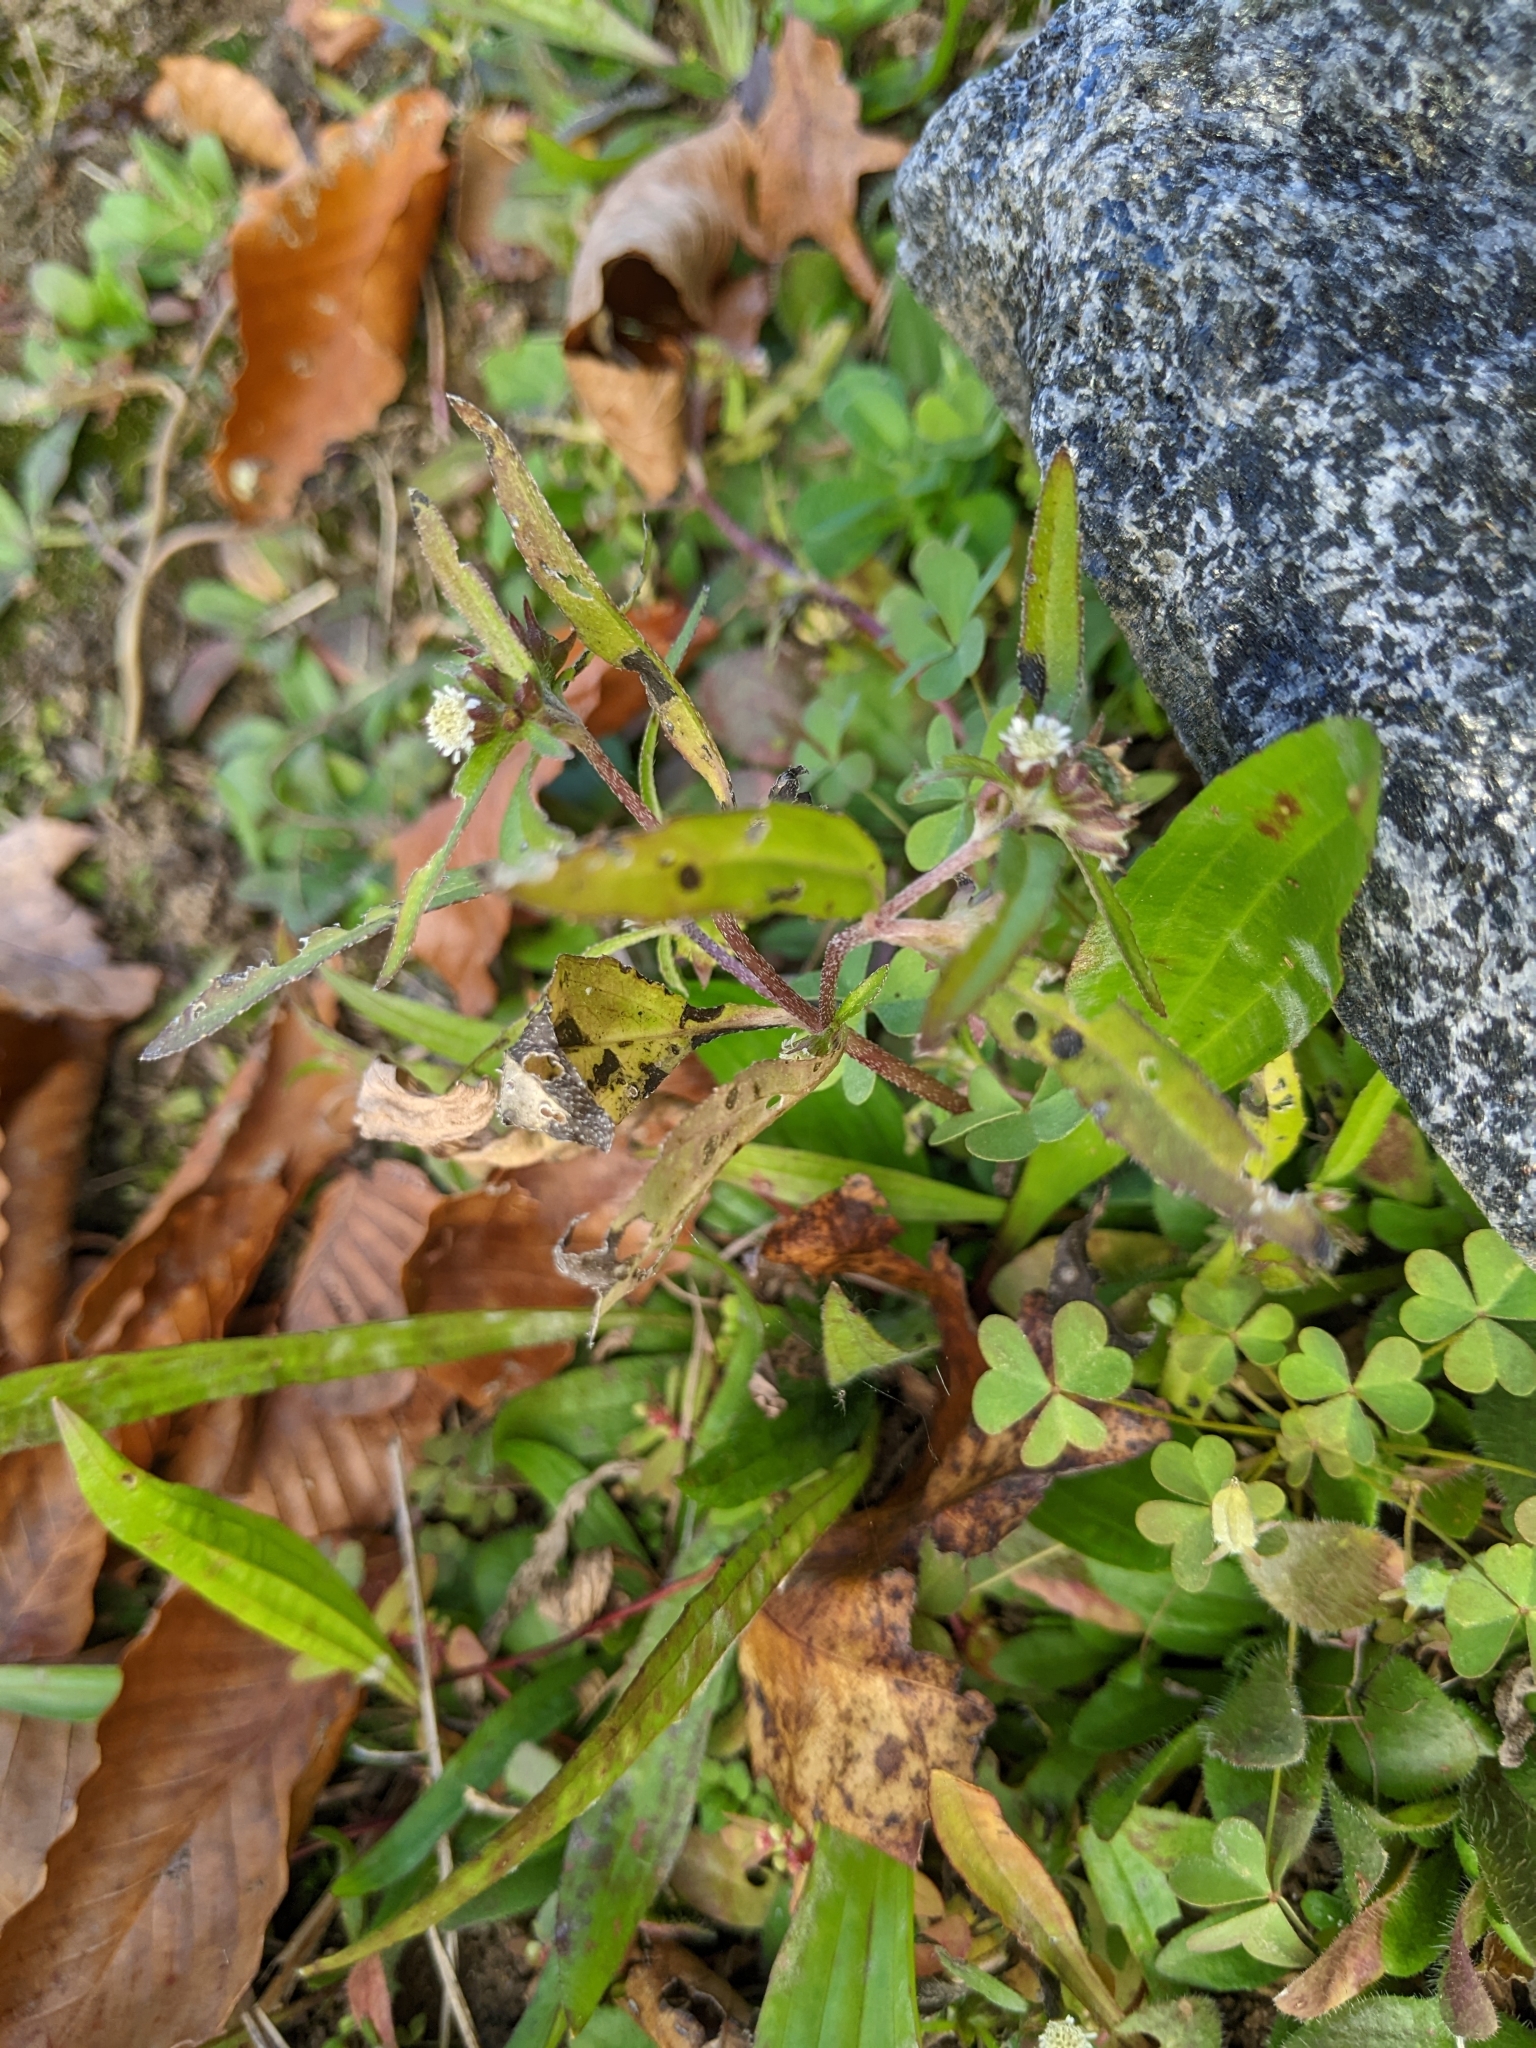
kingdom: Plantae
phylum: Tracheophyta
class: Magnoliopsida
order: Asterales
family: Asteraceae
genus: Eclipta
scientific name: Eclipta prostrata
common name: False daisy
